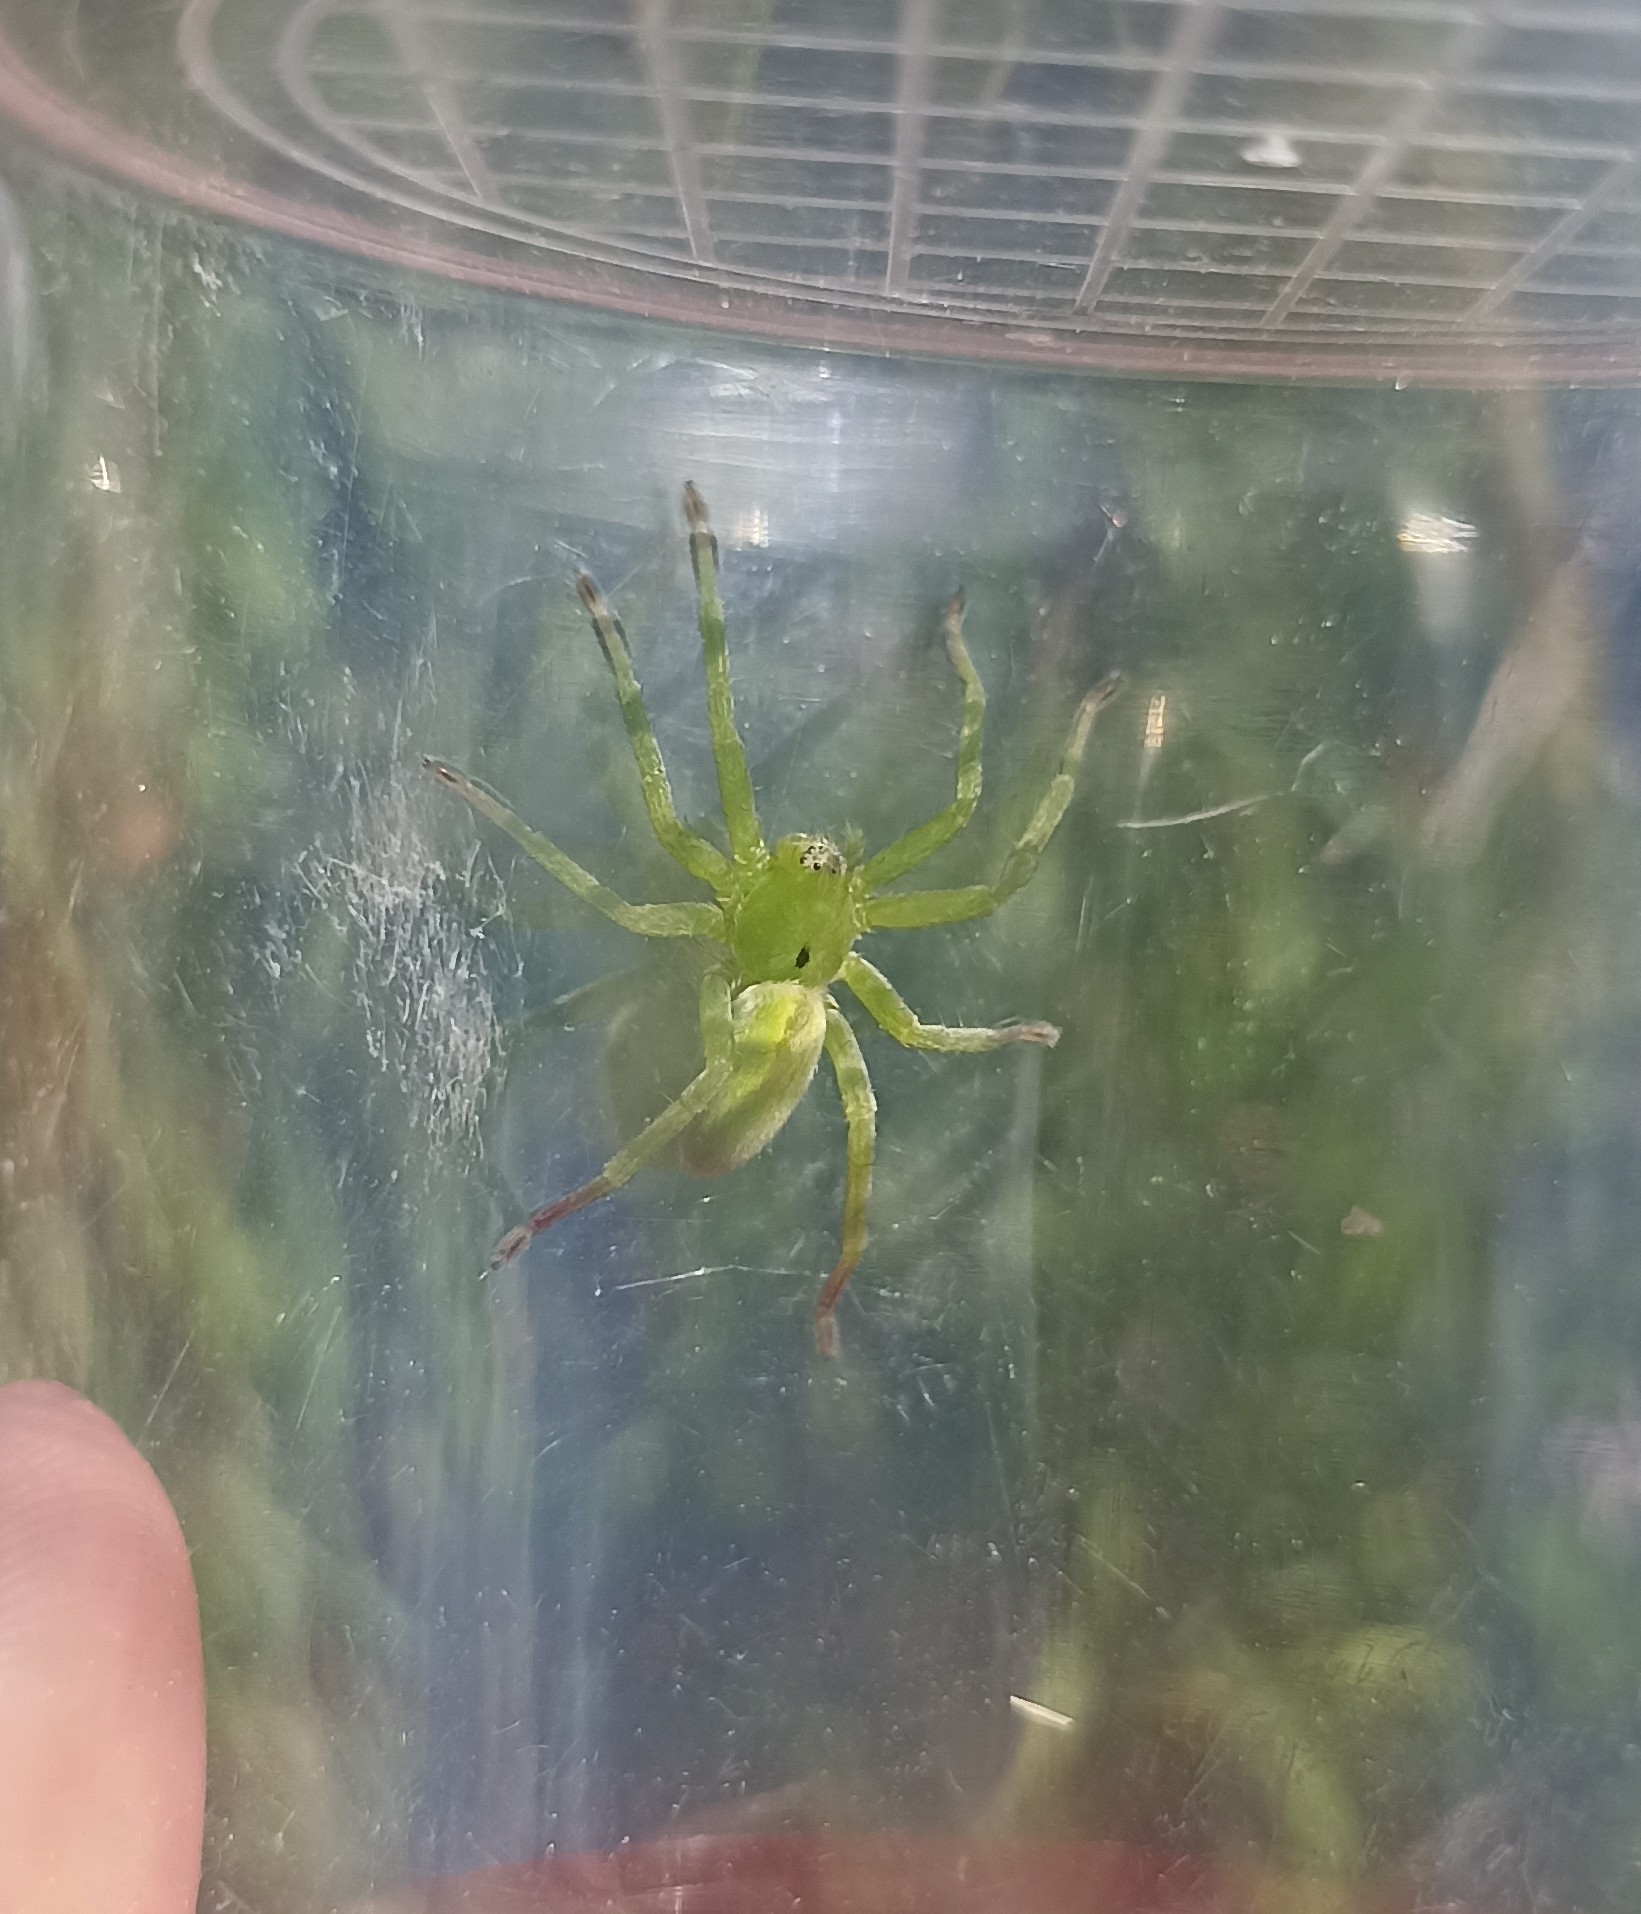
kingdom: Animalia
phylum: Arthropoda
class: Arachnida
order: Araneae
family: Sparassidae
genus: Micrommata
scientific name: Micrommata ligurina
